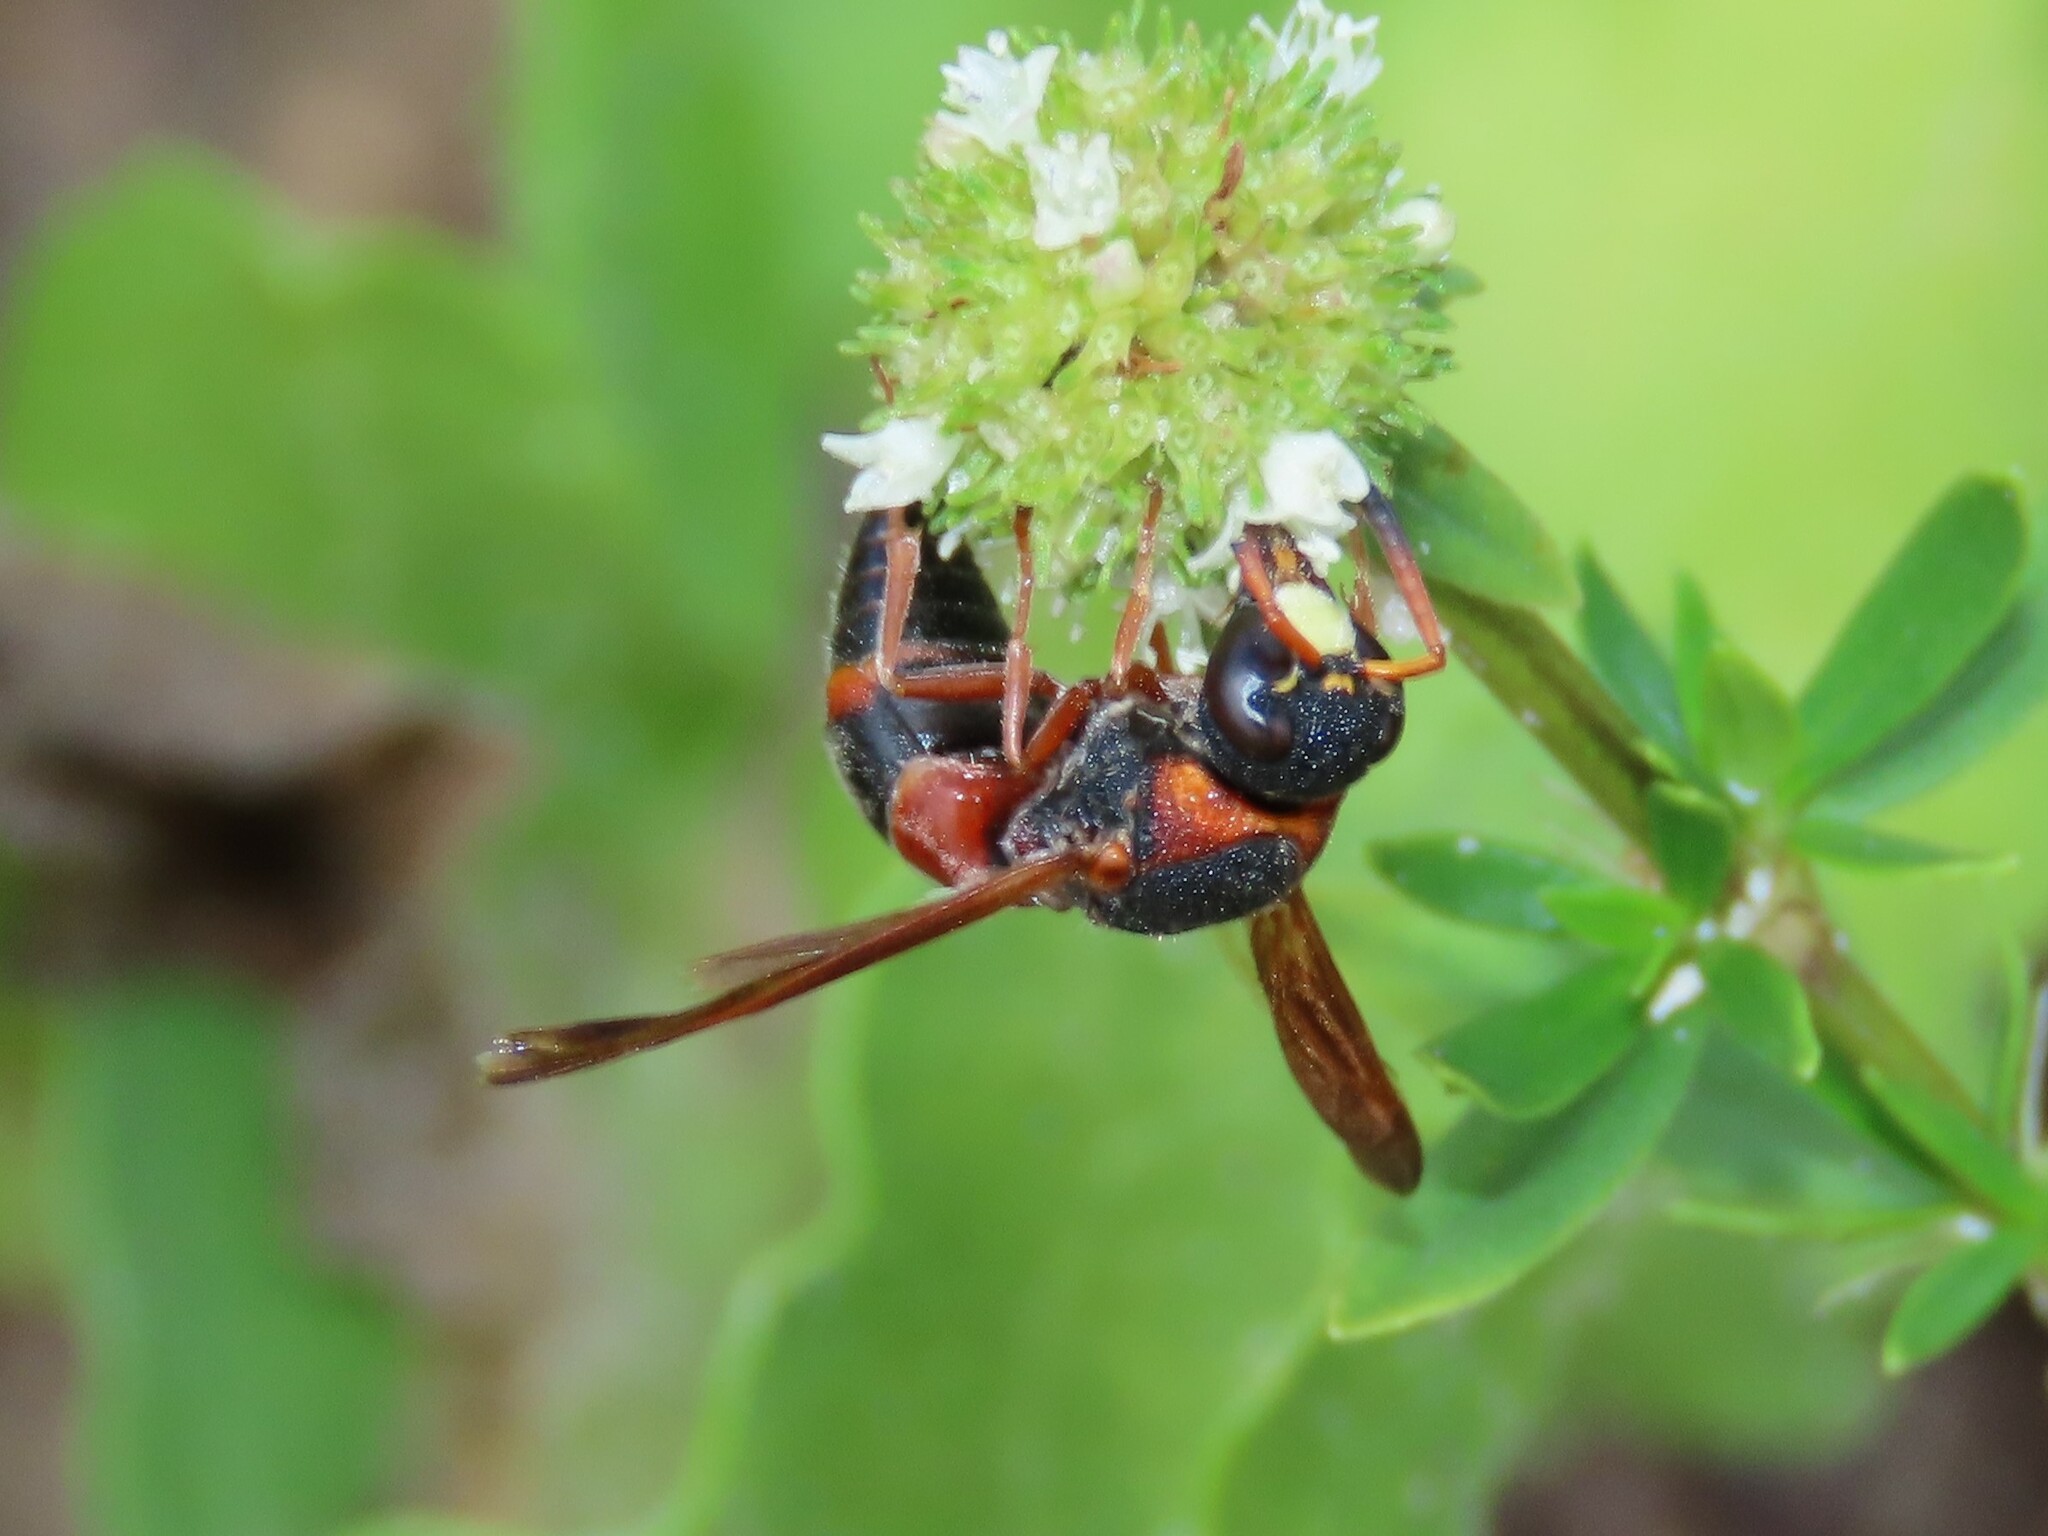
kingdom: Animalia
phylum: Arthropoda
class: Insecta
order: Hymenoptera
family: Eumenidae
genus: Pachodynerus
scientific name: Pachodynerus erynnis
